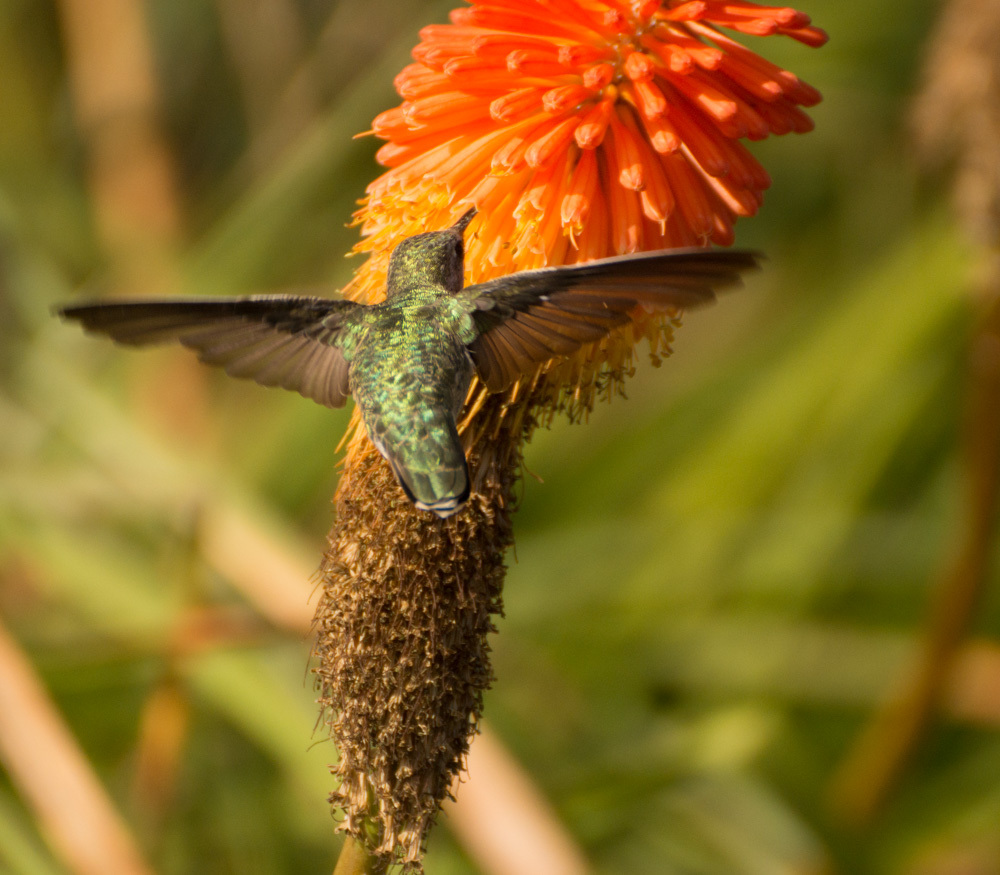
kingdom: Animalia
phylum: Chordata
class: Aves
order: Apodiformes
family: Trochilidae
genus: Calypte
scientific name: Calypte anna
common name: Anna's hummingbird
